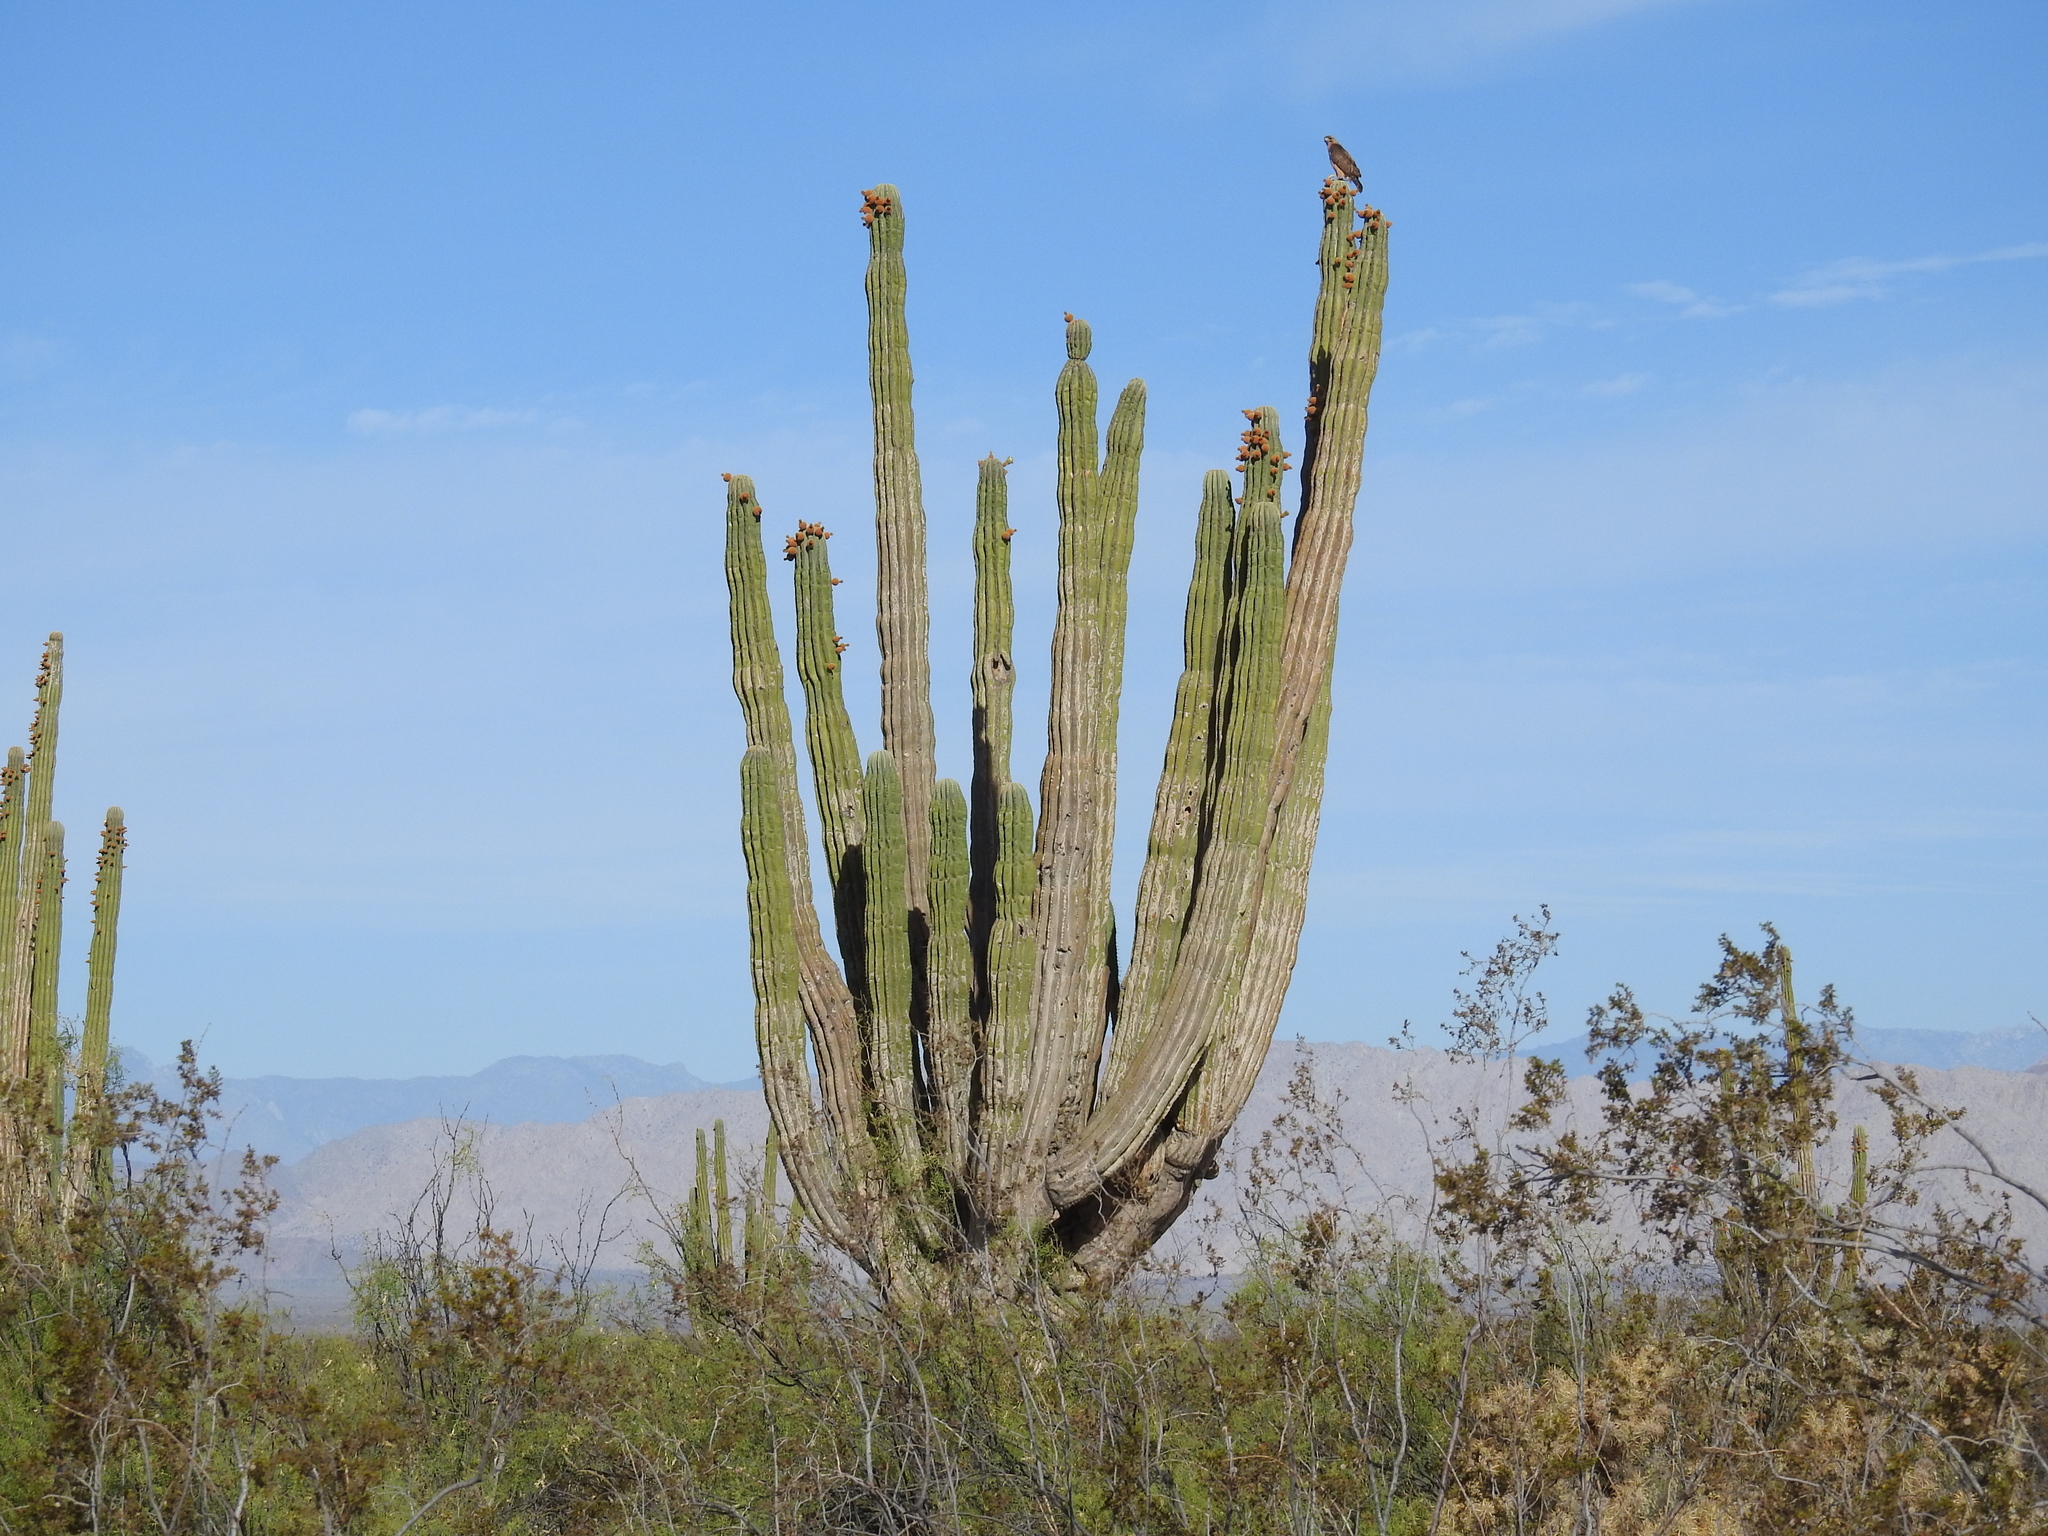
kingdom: Plantae
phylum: Tracheophyta
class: Magnoliopsida
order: Caryophyllales
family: Cactaceae
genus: Pachycereus
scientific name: Pachycereus pringlei
